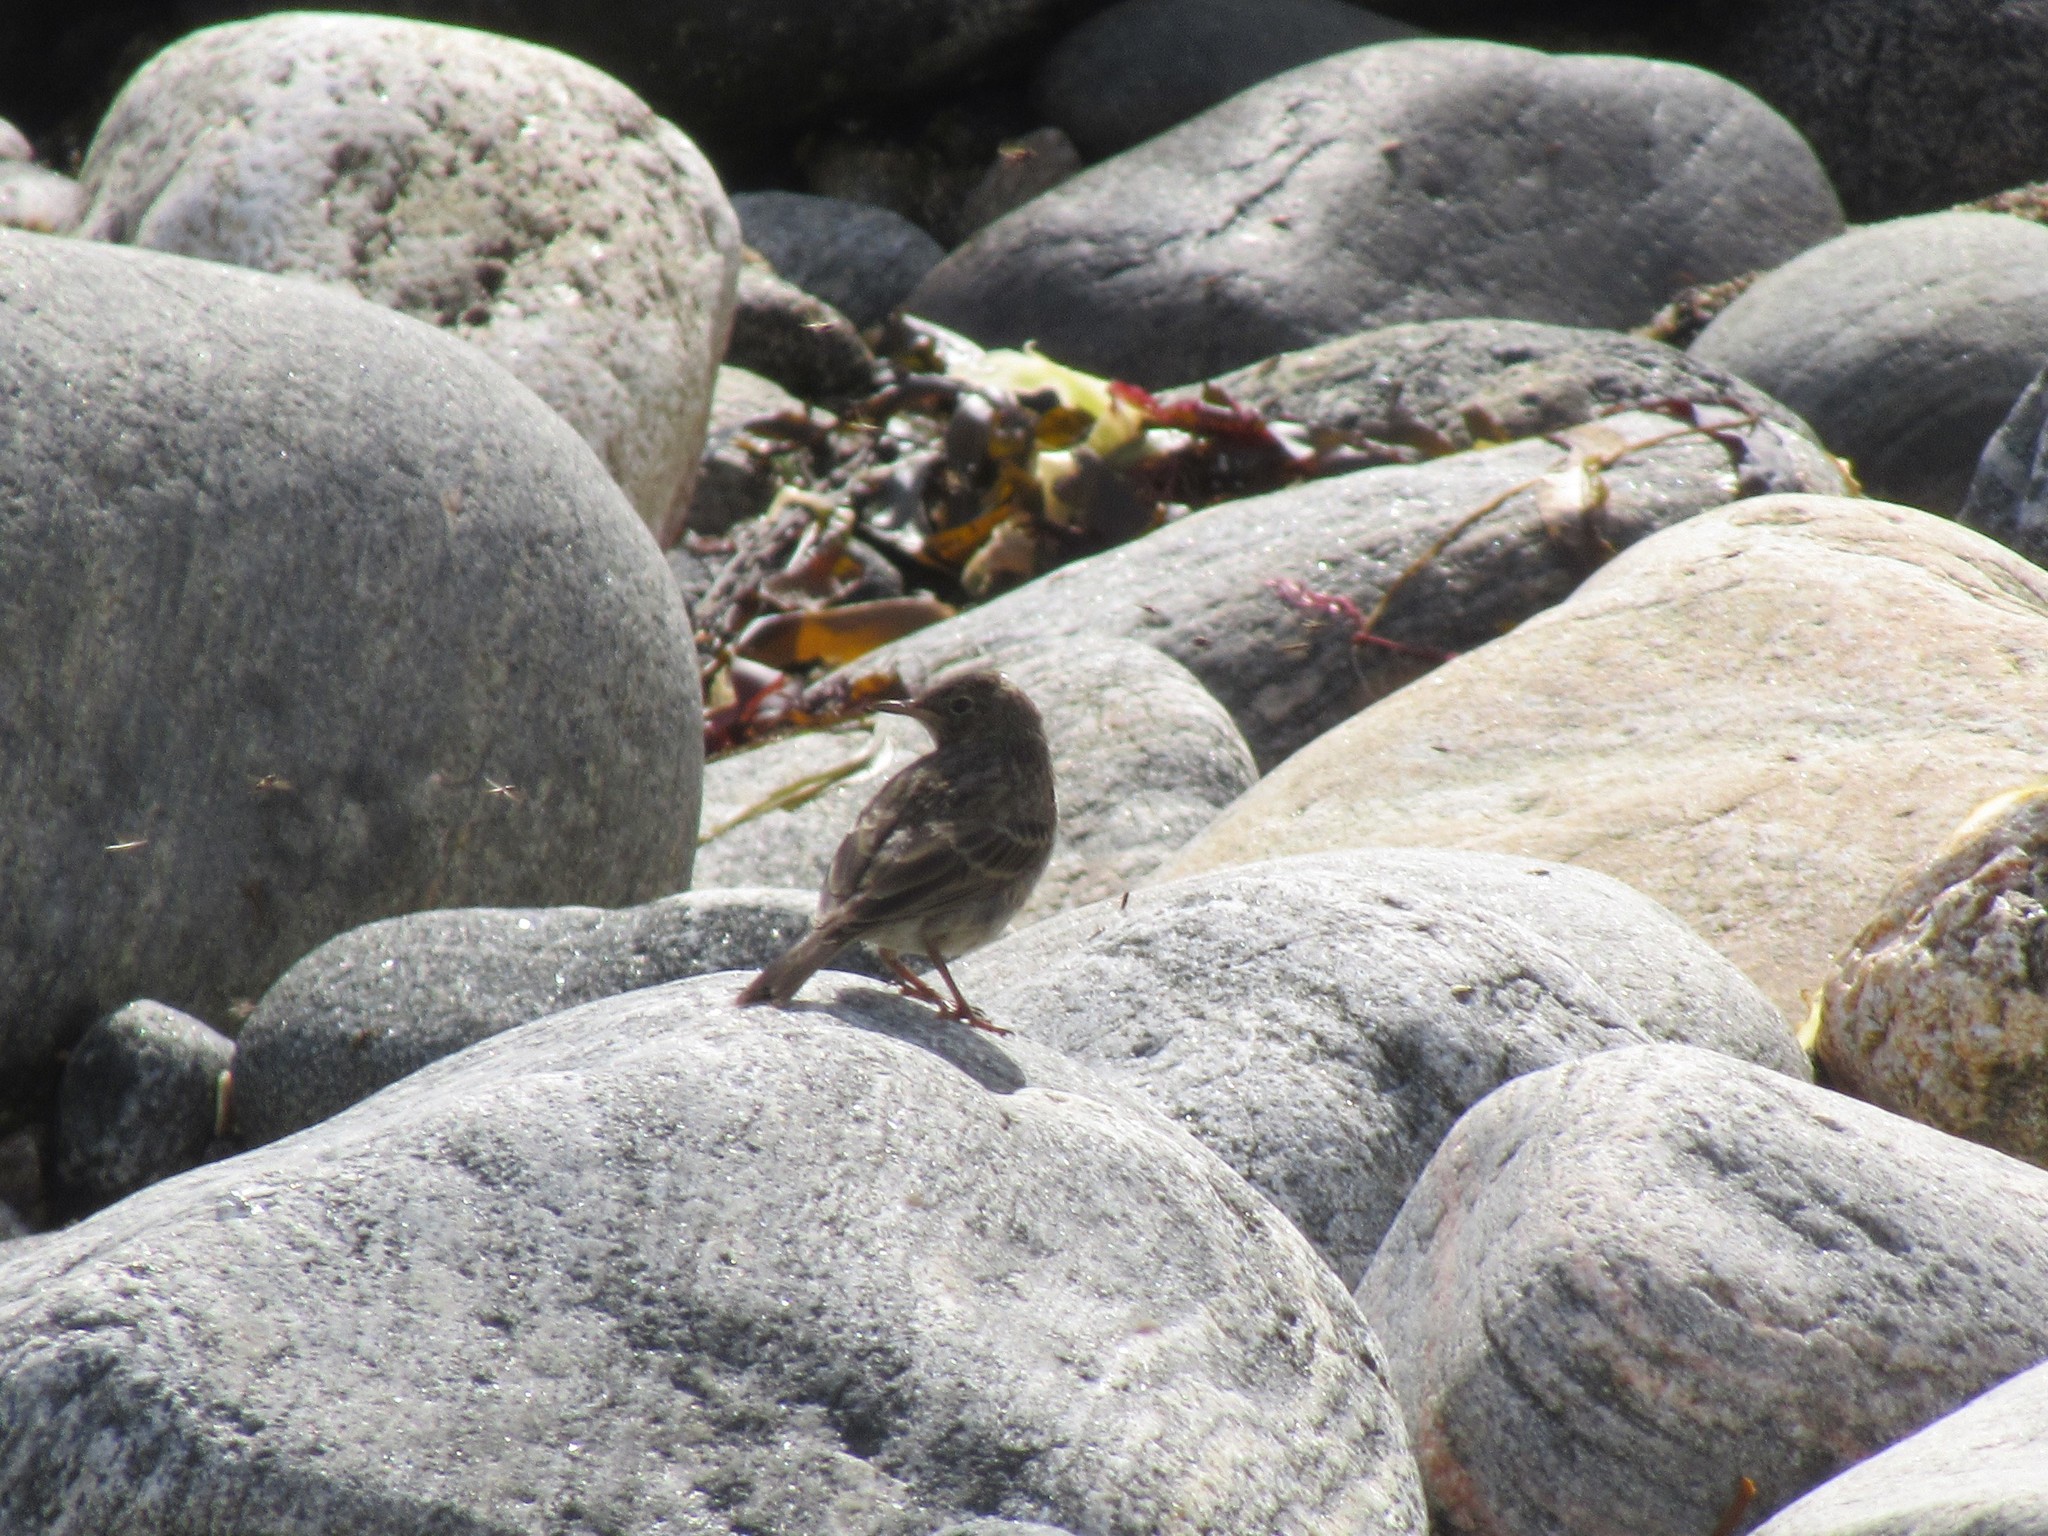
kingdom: Animalia
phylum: Chordata
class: Aves
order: Passeriformes
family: Motacillidae
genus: Anthus
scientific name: Anthus petrosus
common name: Eurasian rock pipit
